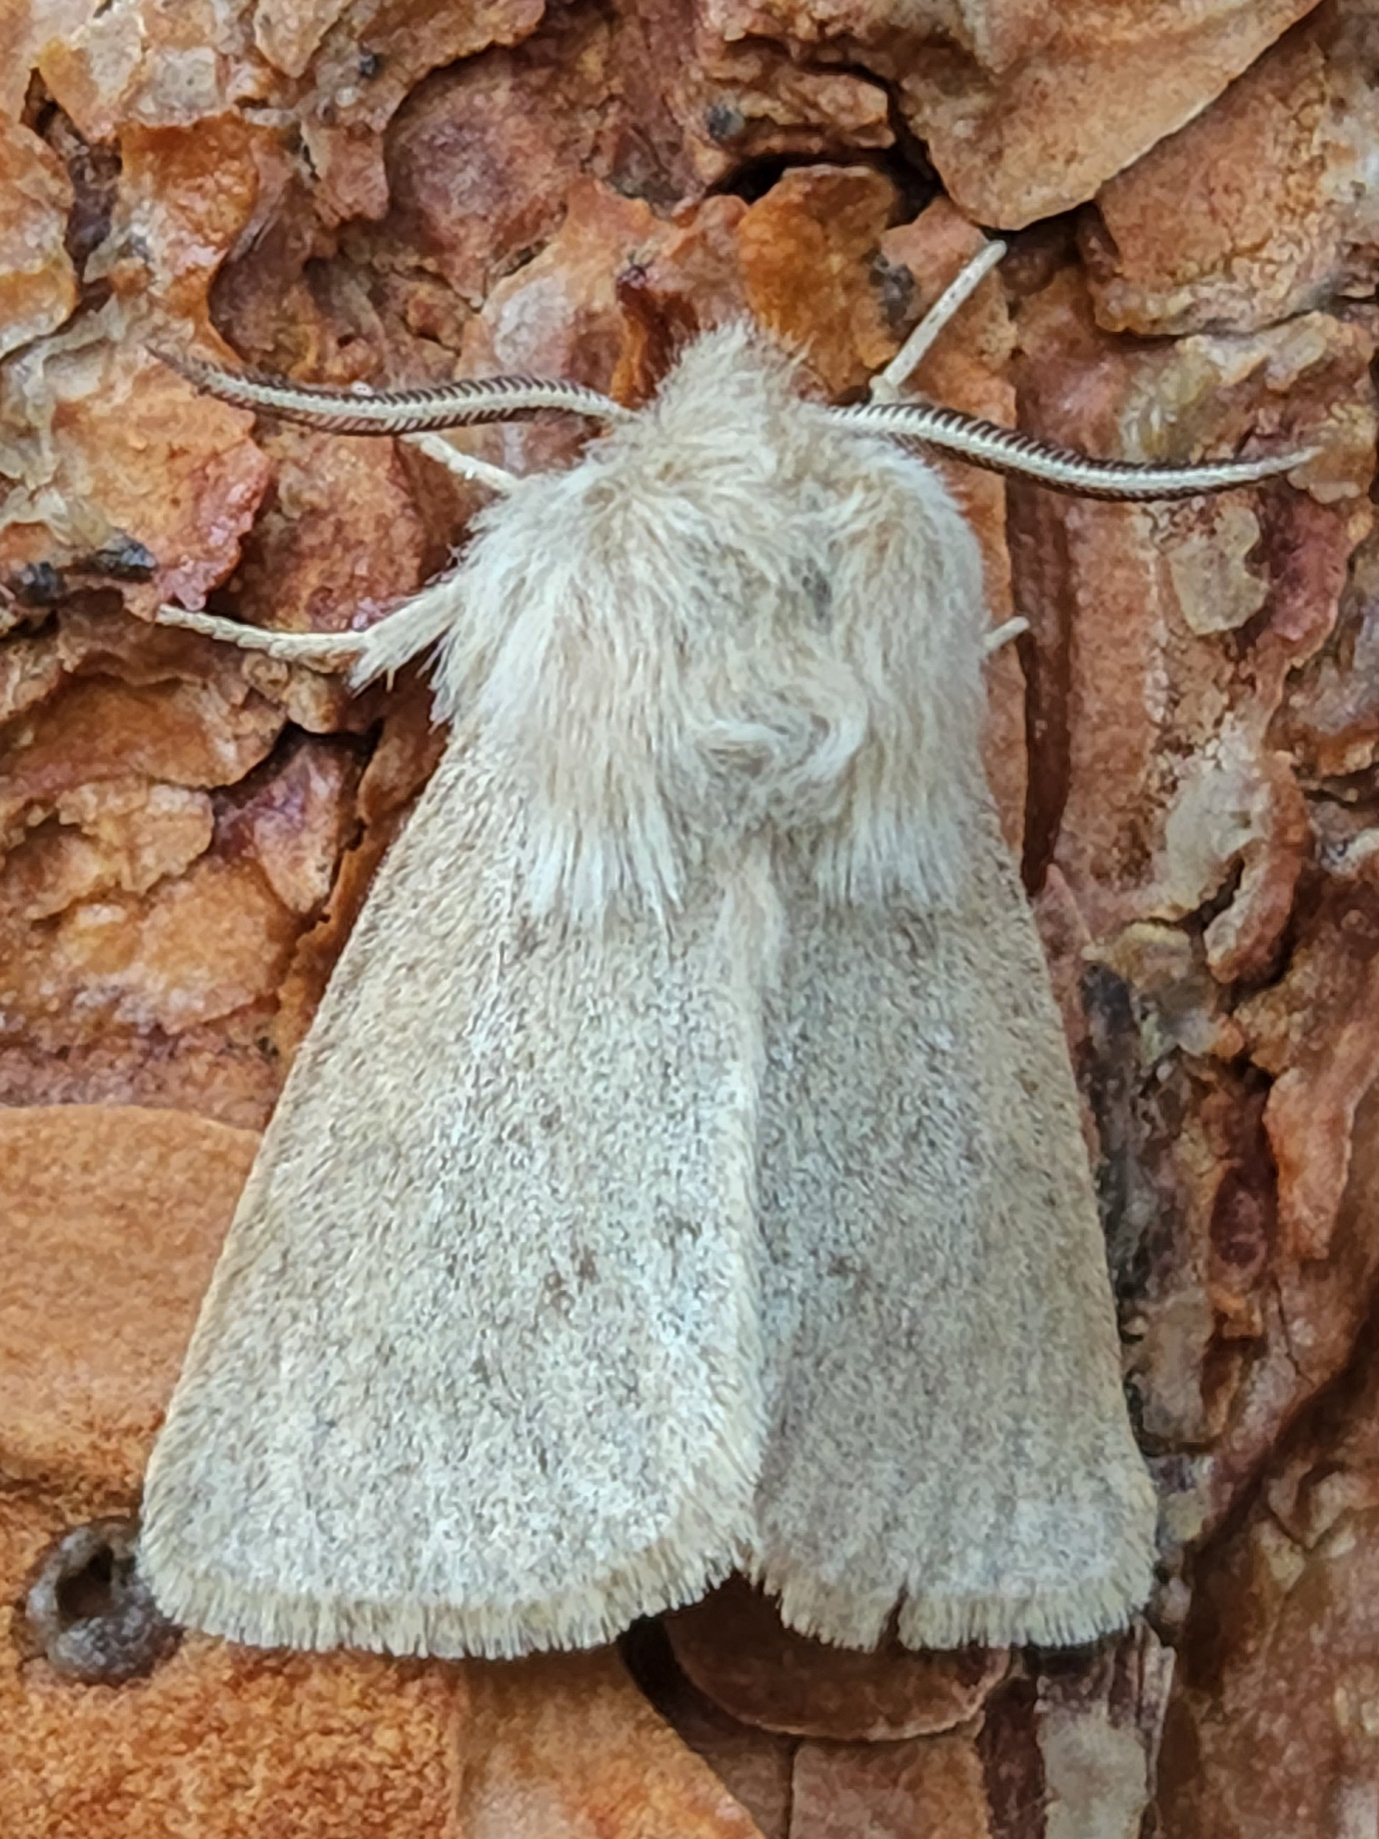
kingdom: Animalia
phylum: Arthropoda
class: Insecta
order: Lepidoptera
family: Erebidae
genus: Spilosoma
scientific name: Spilosoma vagans
